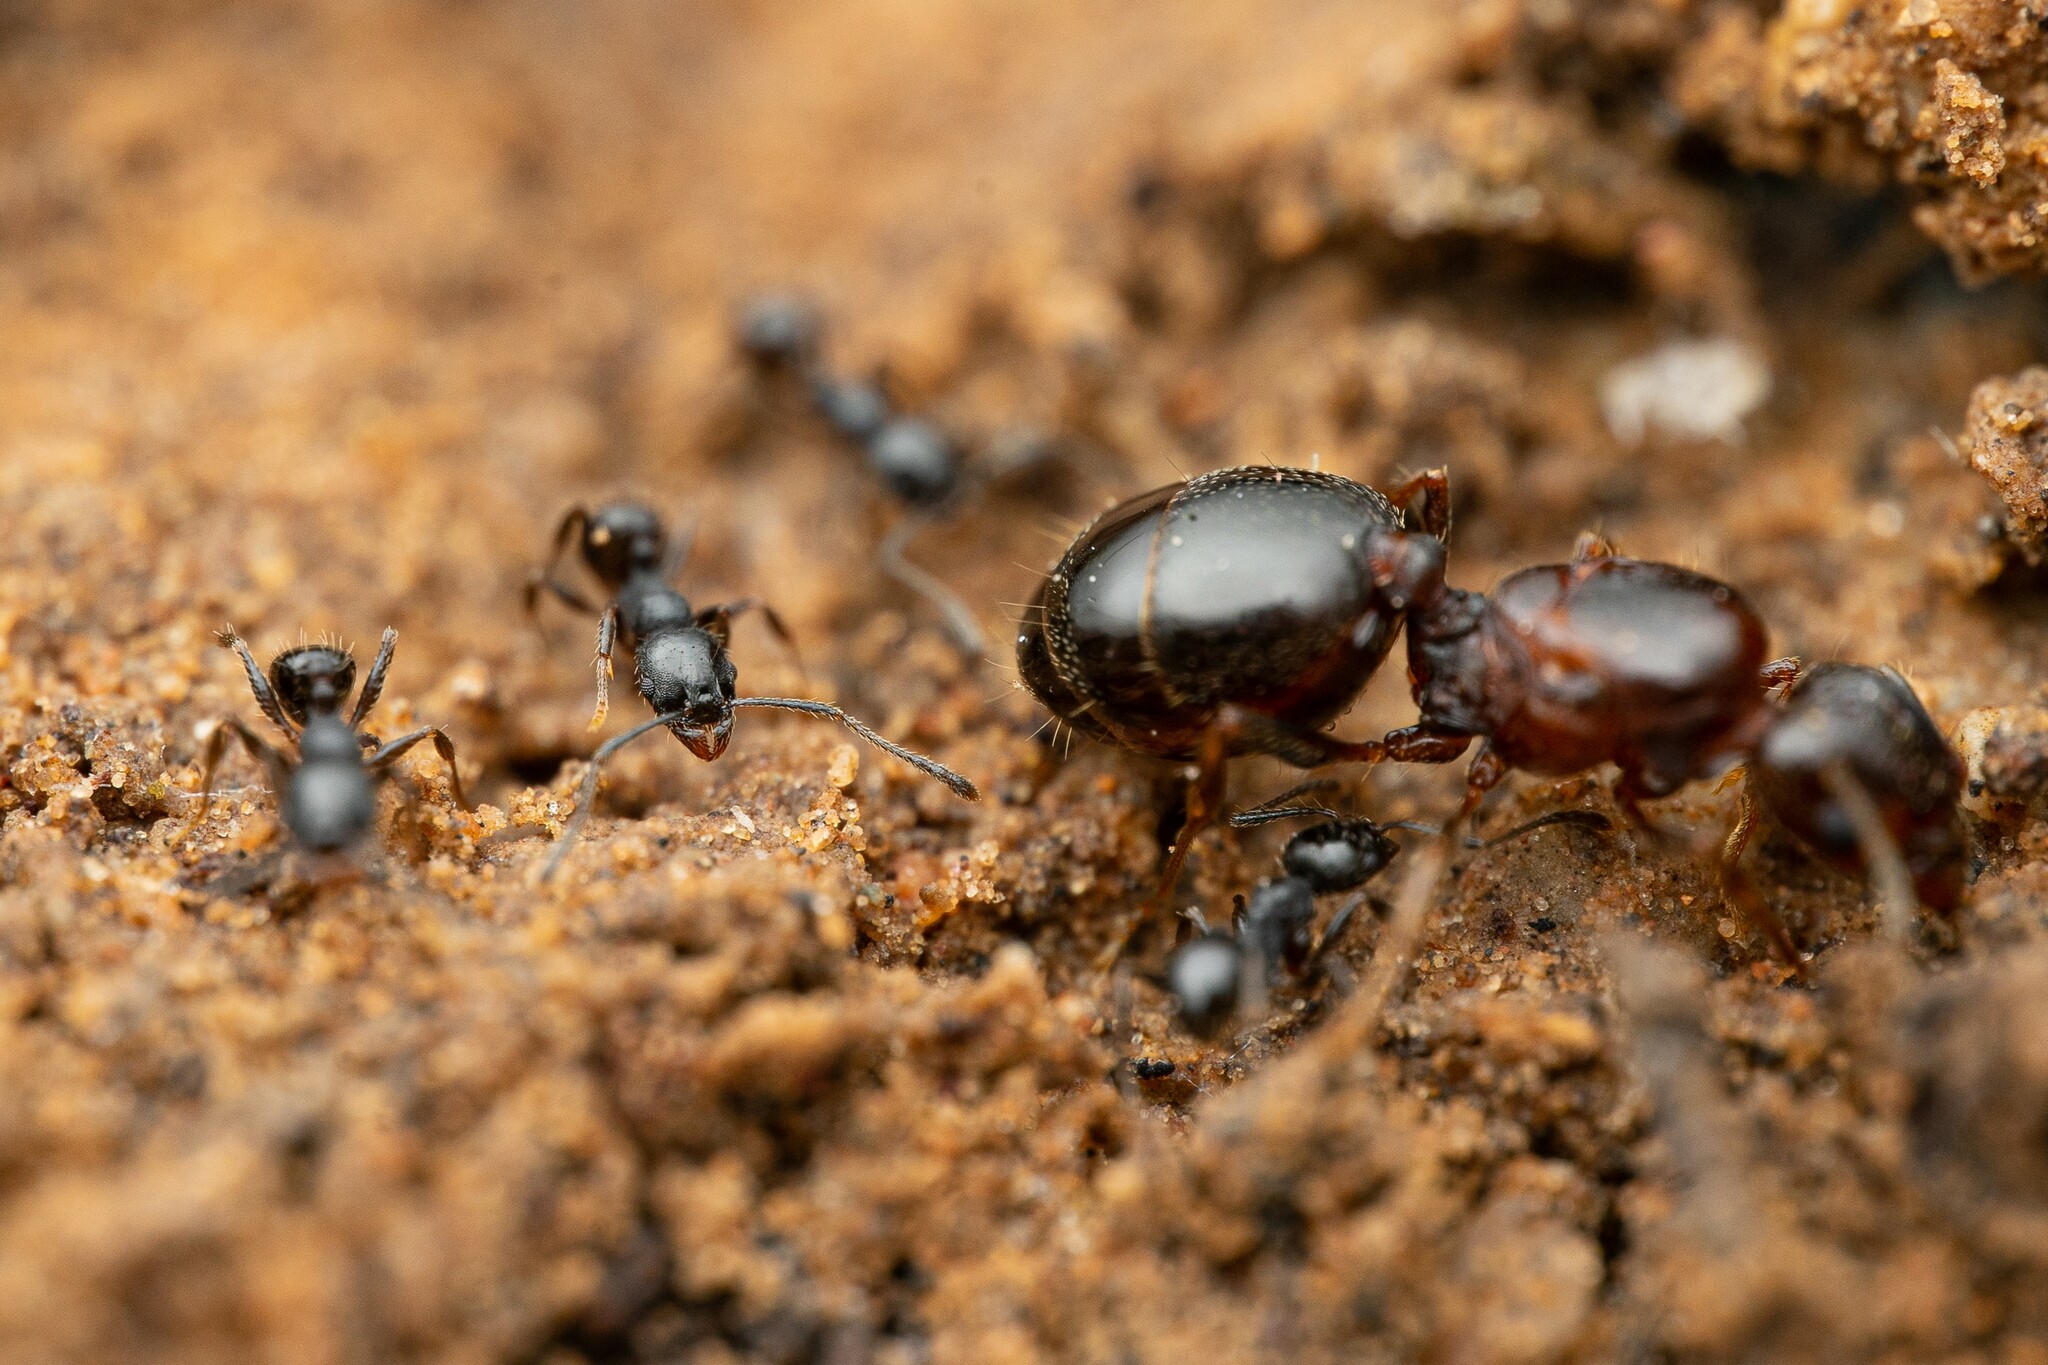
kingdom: Animalia
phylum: Arthropoda
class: Insecta
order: Hymenoptera
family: Formicidae
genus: Pheidole
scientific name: Pheidole sciophila
